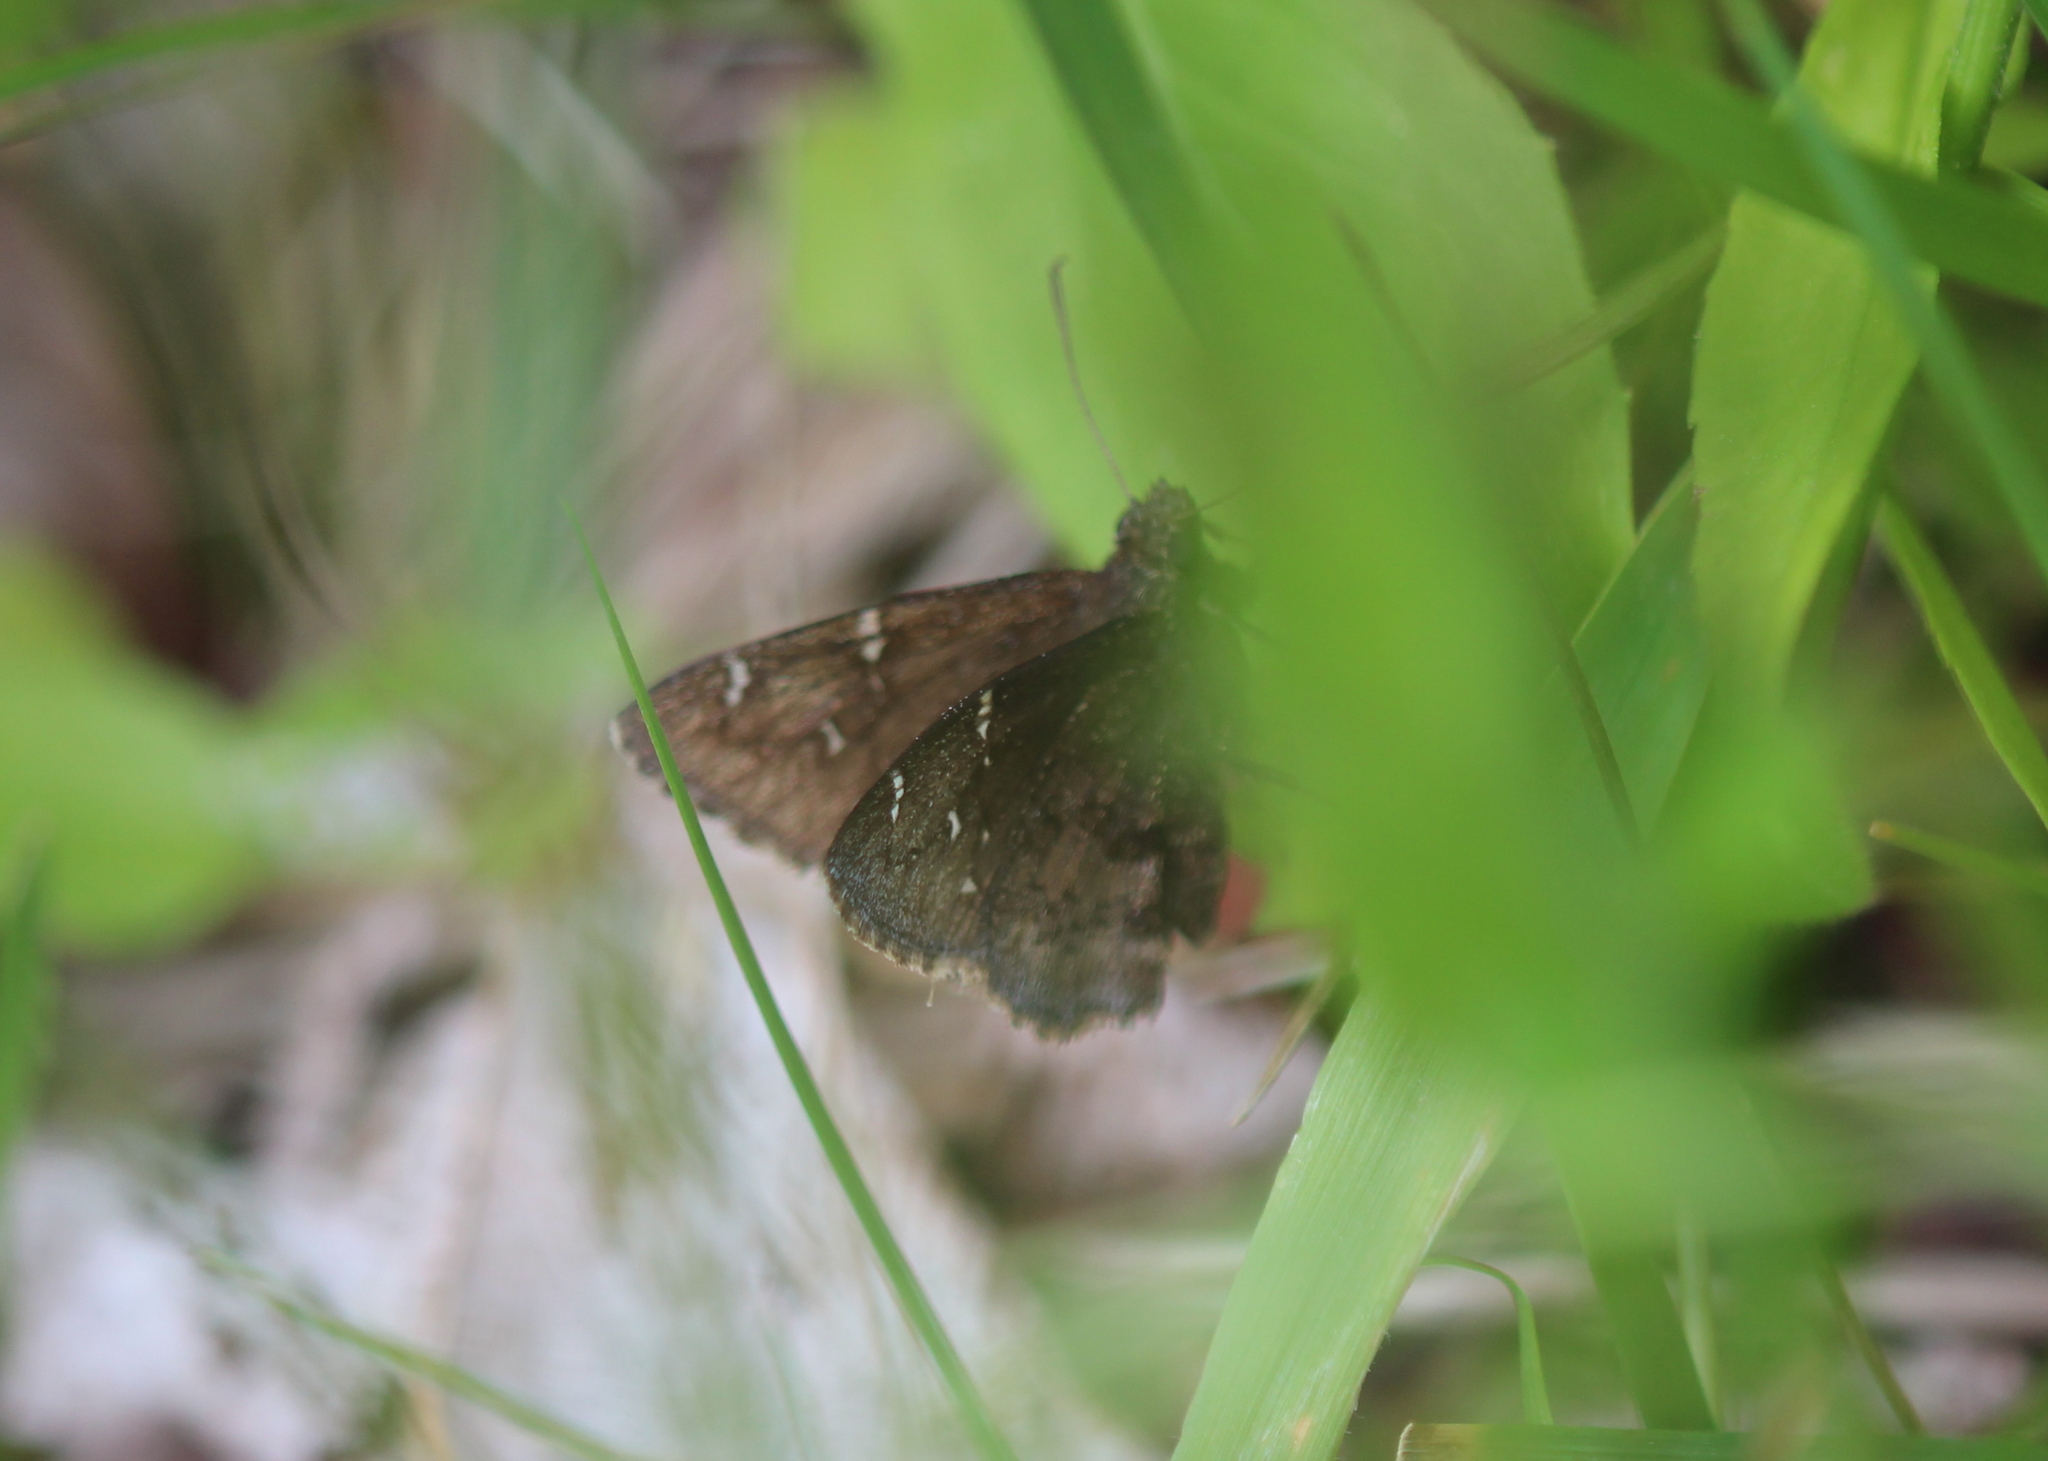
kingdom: Animalia
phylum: Arthropoda
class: Insecta
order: Lepidoptera
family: Hesperiidae
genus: Thorybes
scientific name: Thorybes pylades
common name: Northern cloudywing
